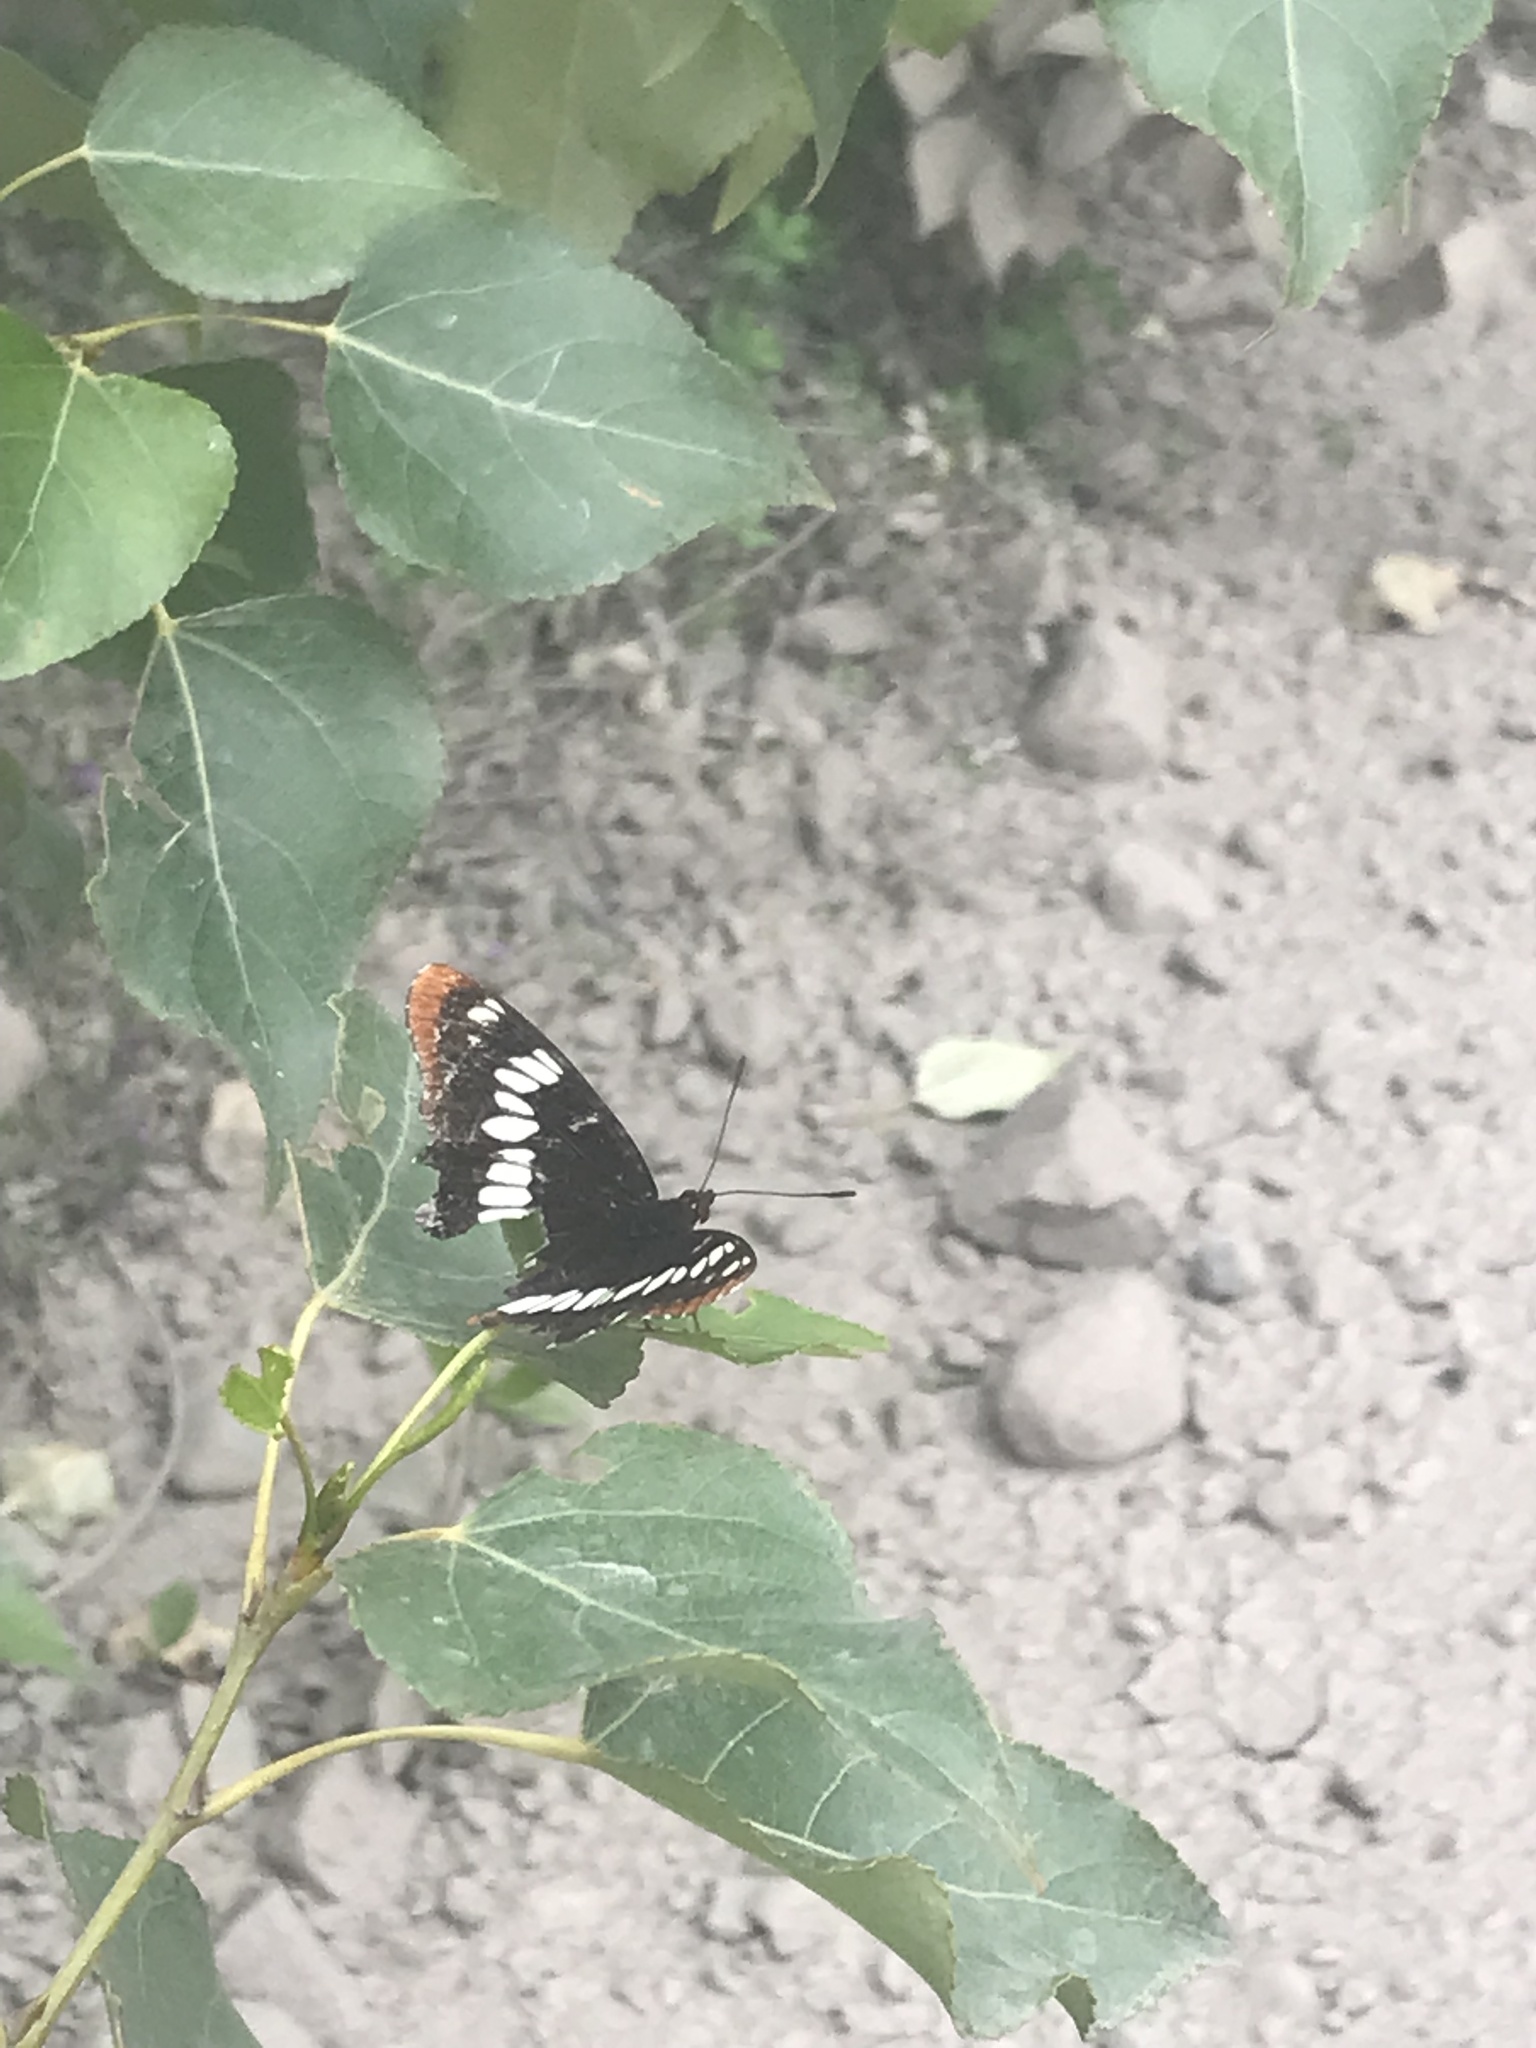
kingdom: Animalia
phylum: Arthropoda
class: Insecta
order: Lepidoptera
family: Nymphalidae
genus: Limenitis
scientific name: Limenitis lorquini
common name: Lorquin's admiral
